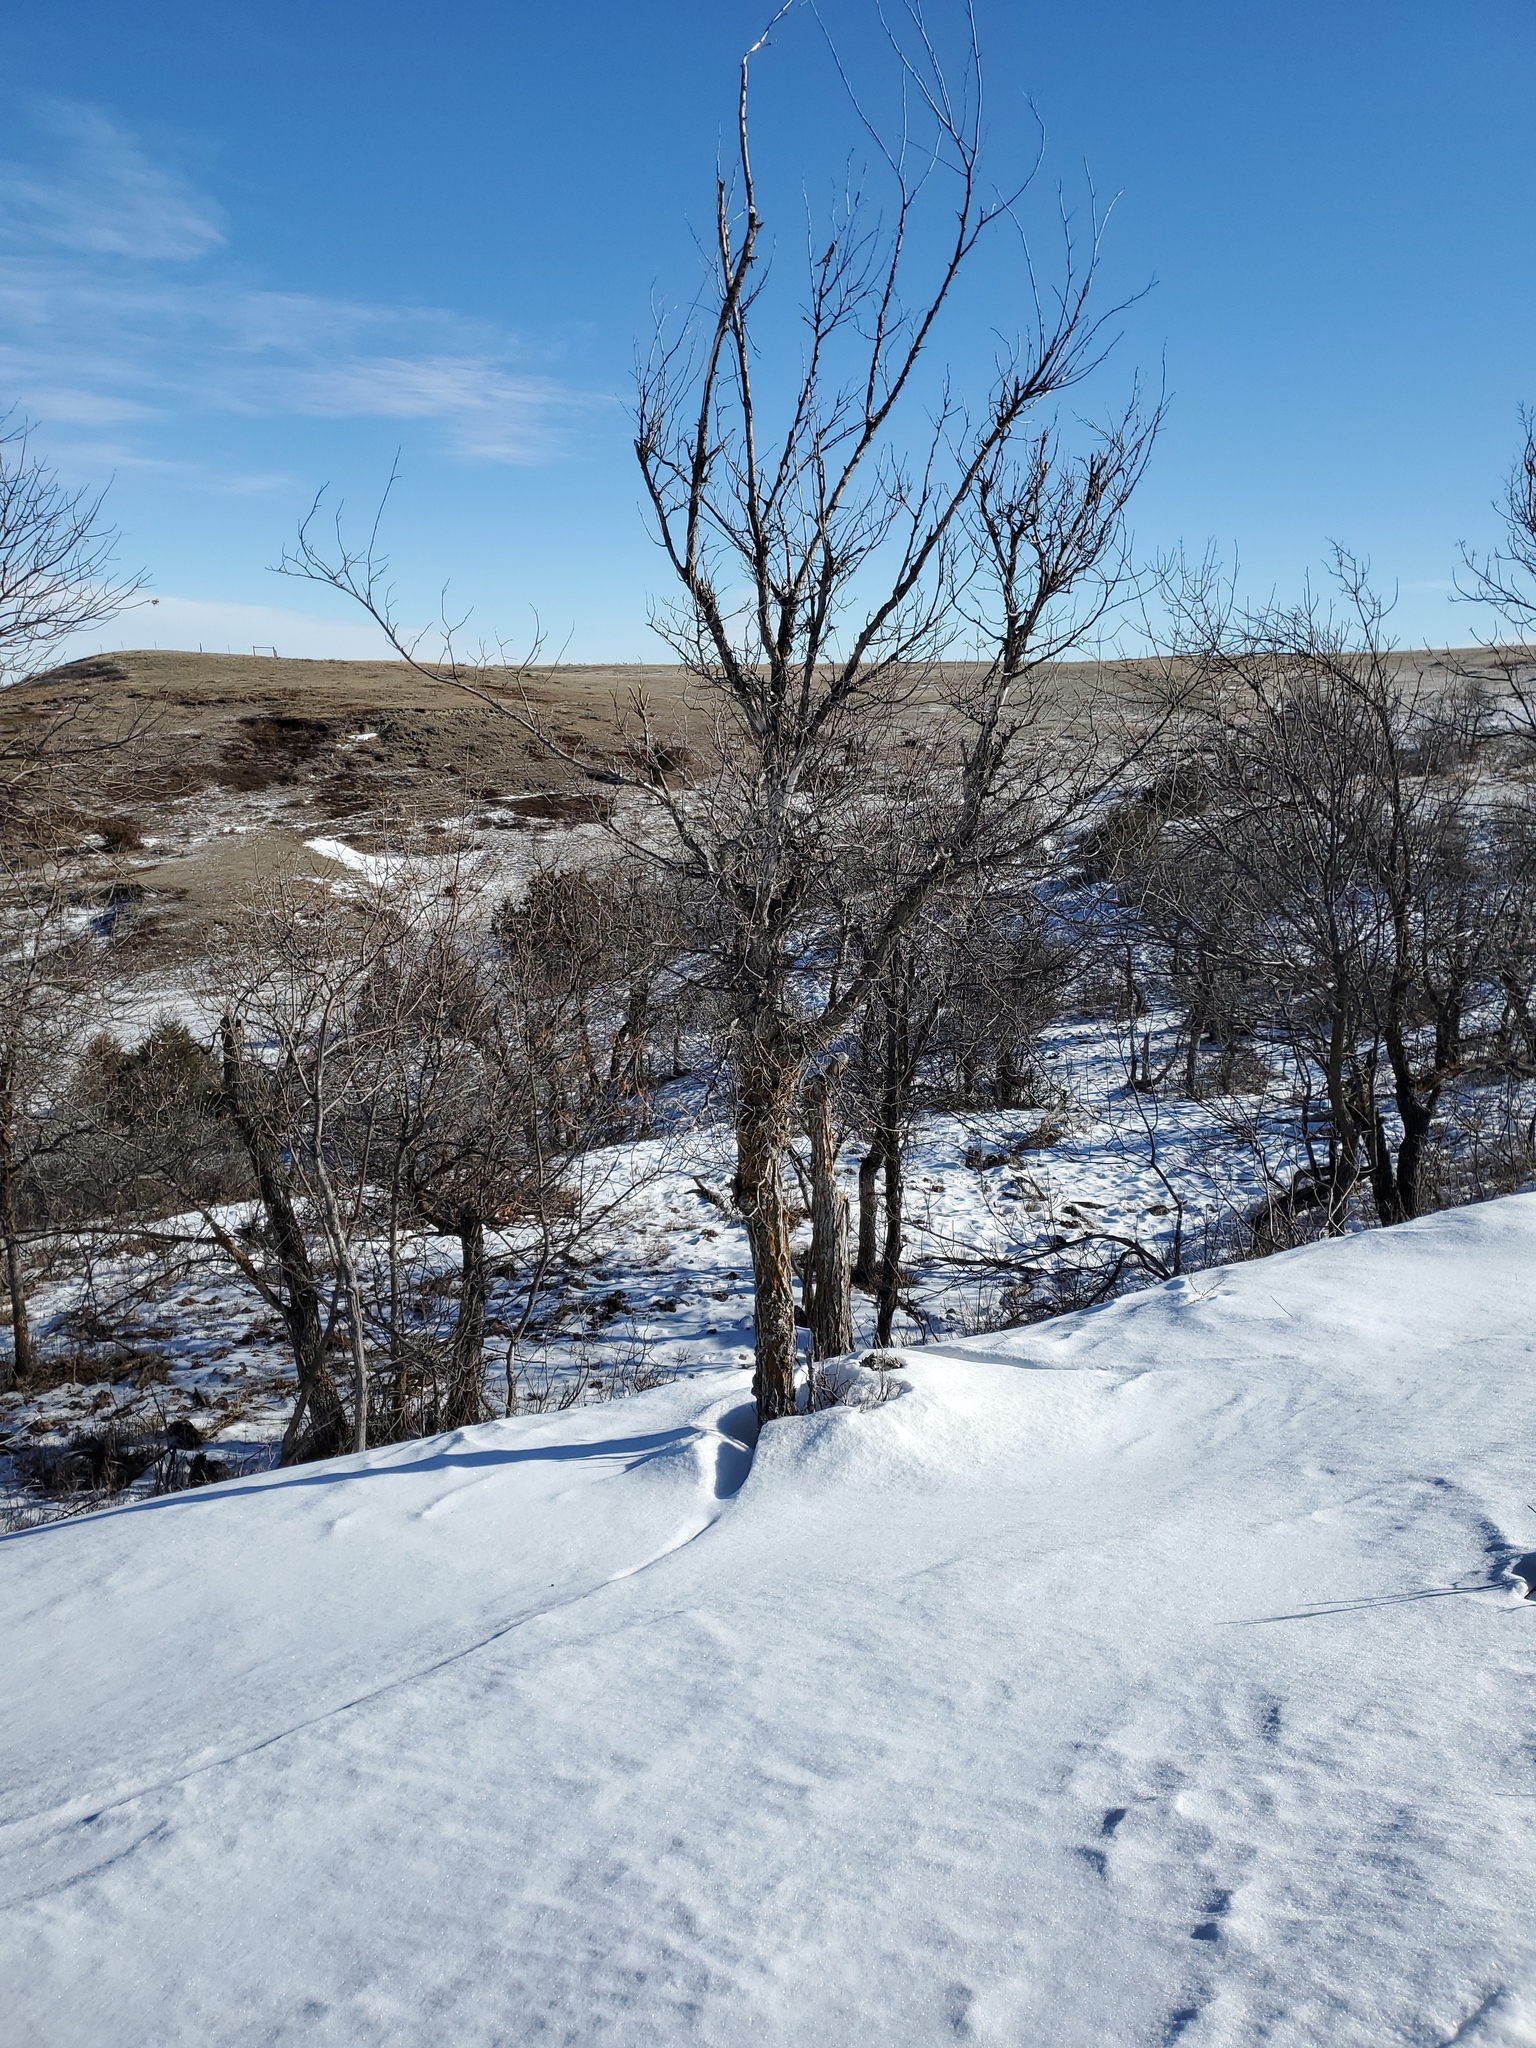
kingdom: Plantae
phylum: Tracheophyta
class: Magnoliopsida
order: Lamiales
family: Oleaceae
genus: Fraxinus
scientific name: Fraxinus pennsylvanica
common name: Green ash
